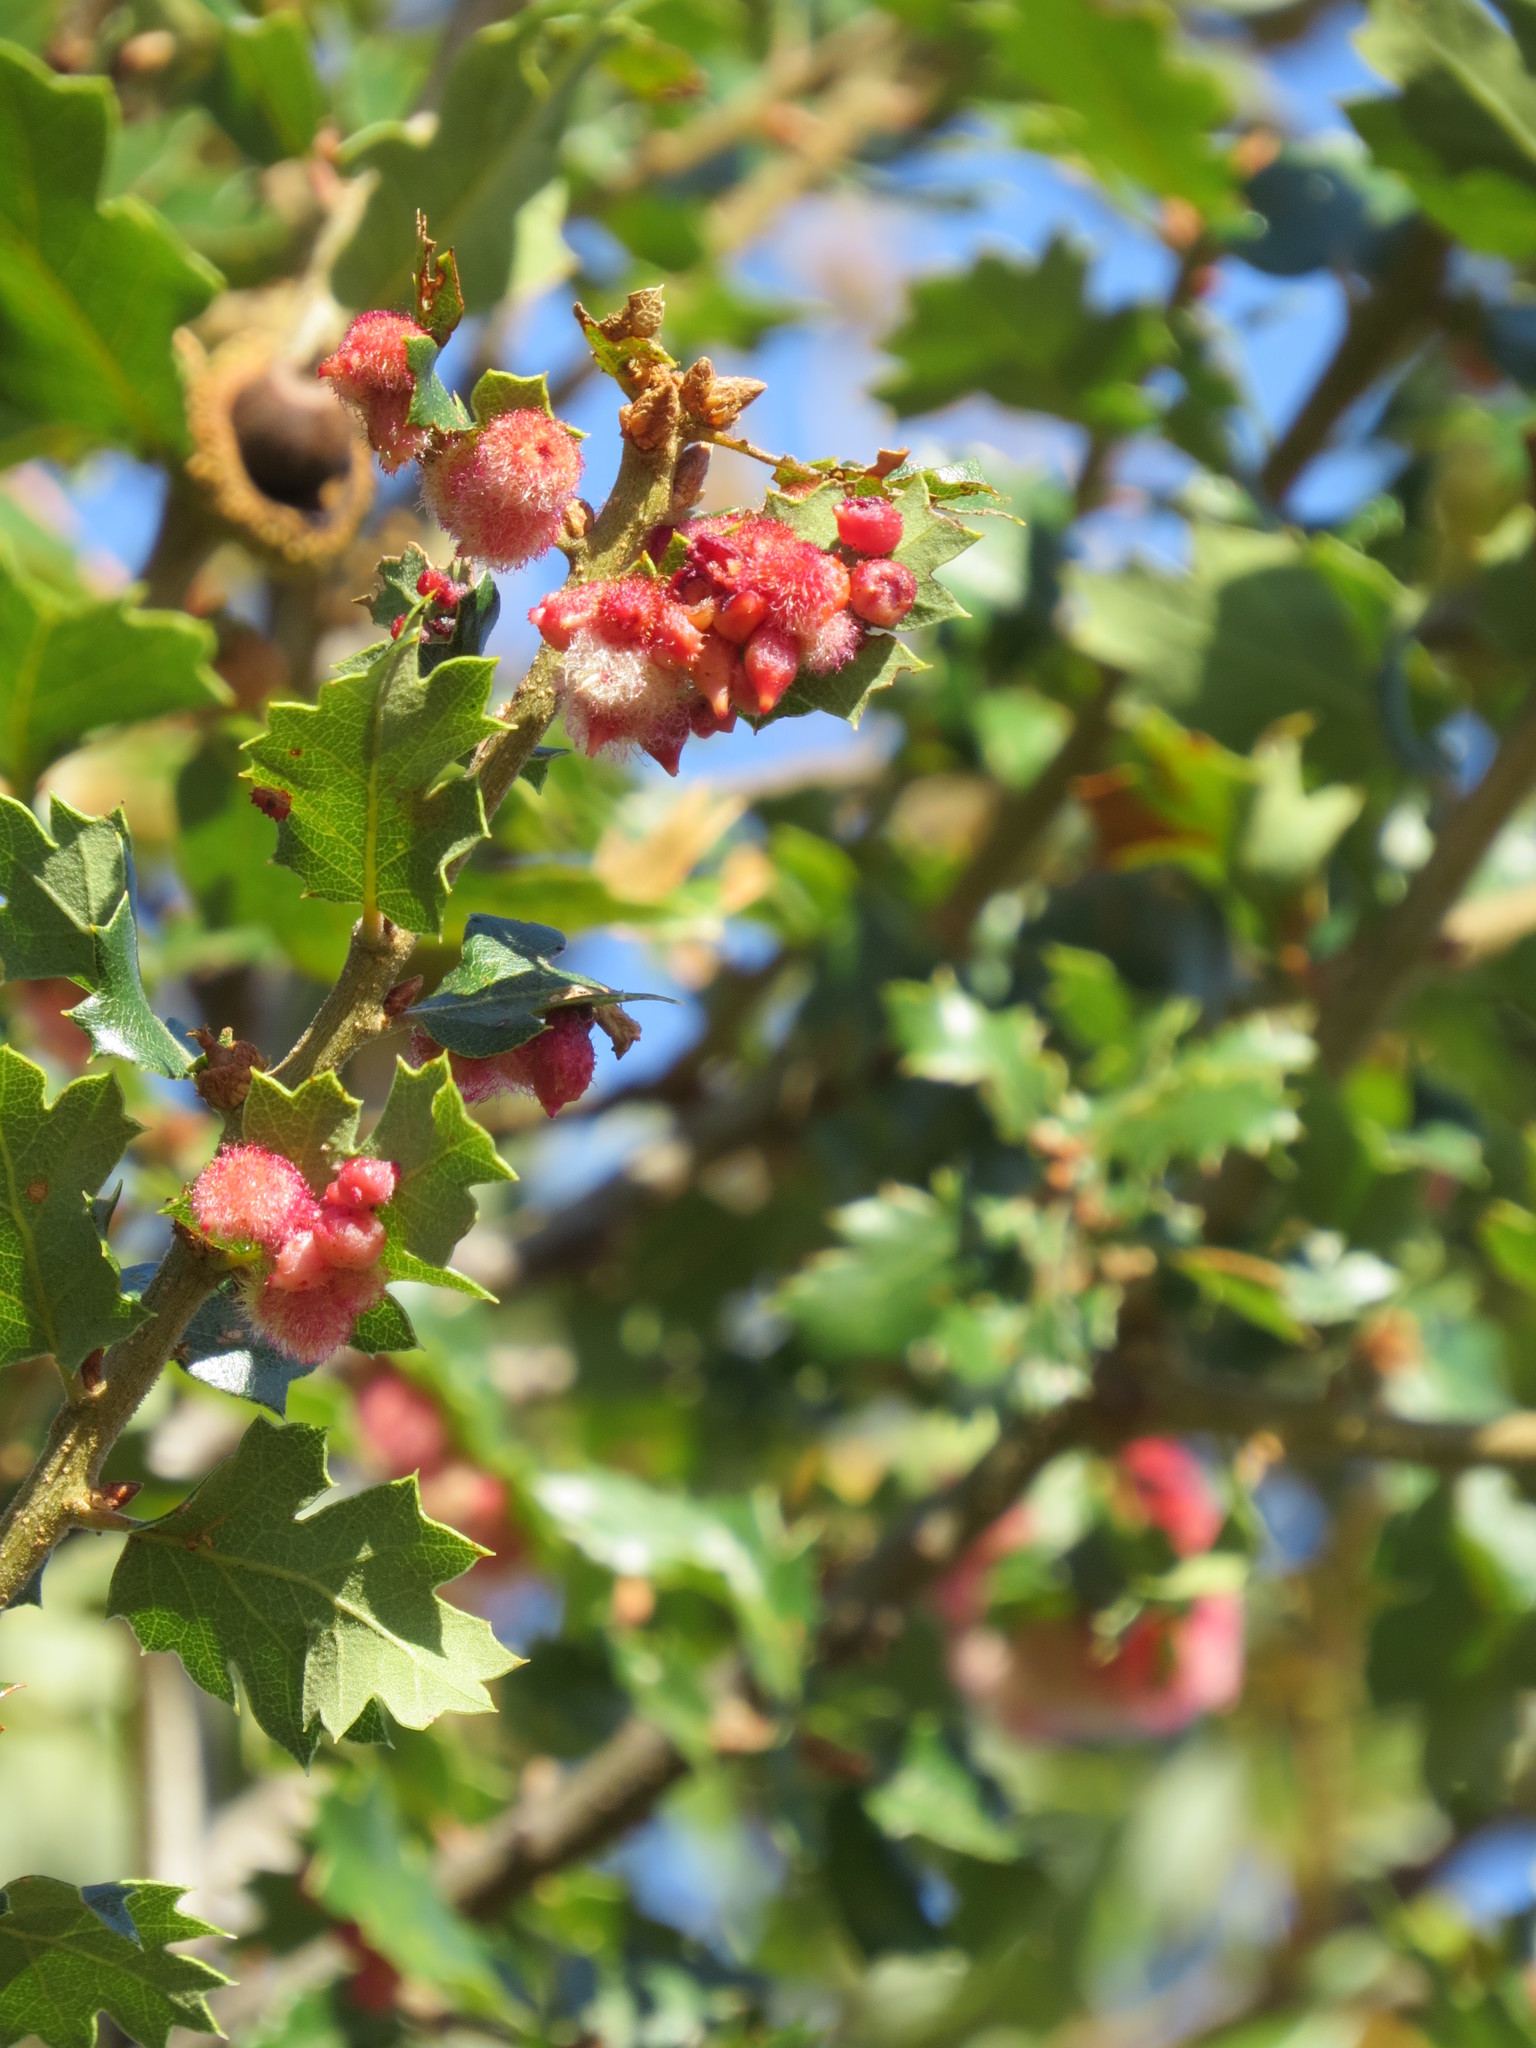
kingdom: Animalia
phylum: Arthropoda
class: Insecta
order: Hymenoptera
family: Cynipidae
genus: Andricus
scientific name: Andricus
